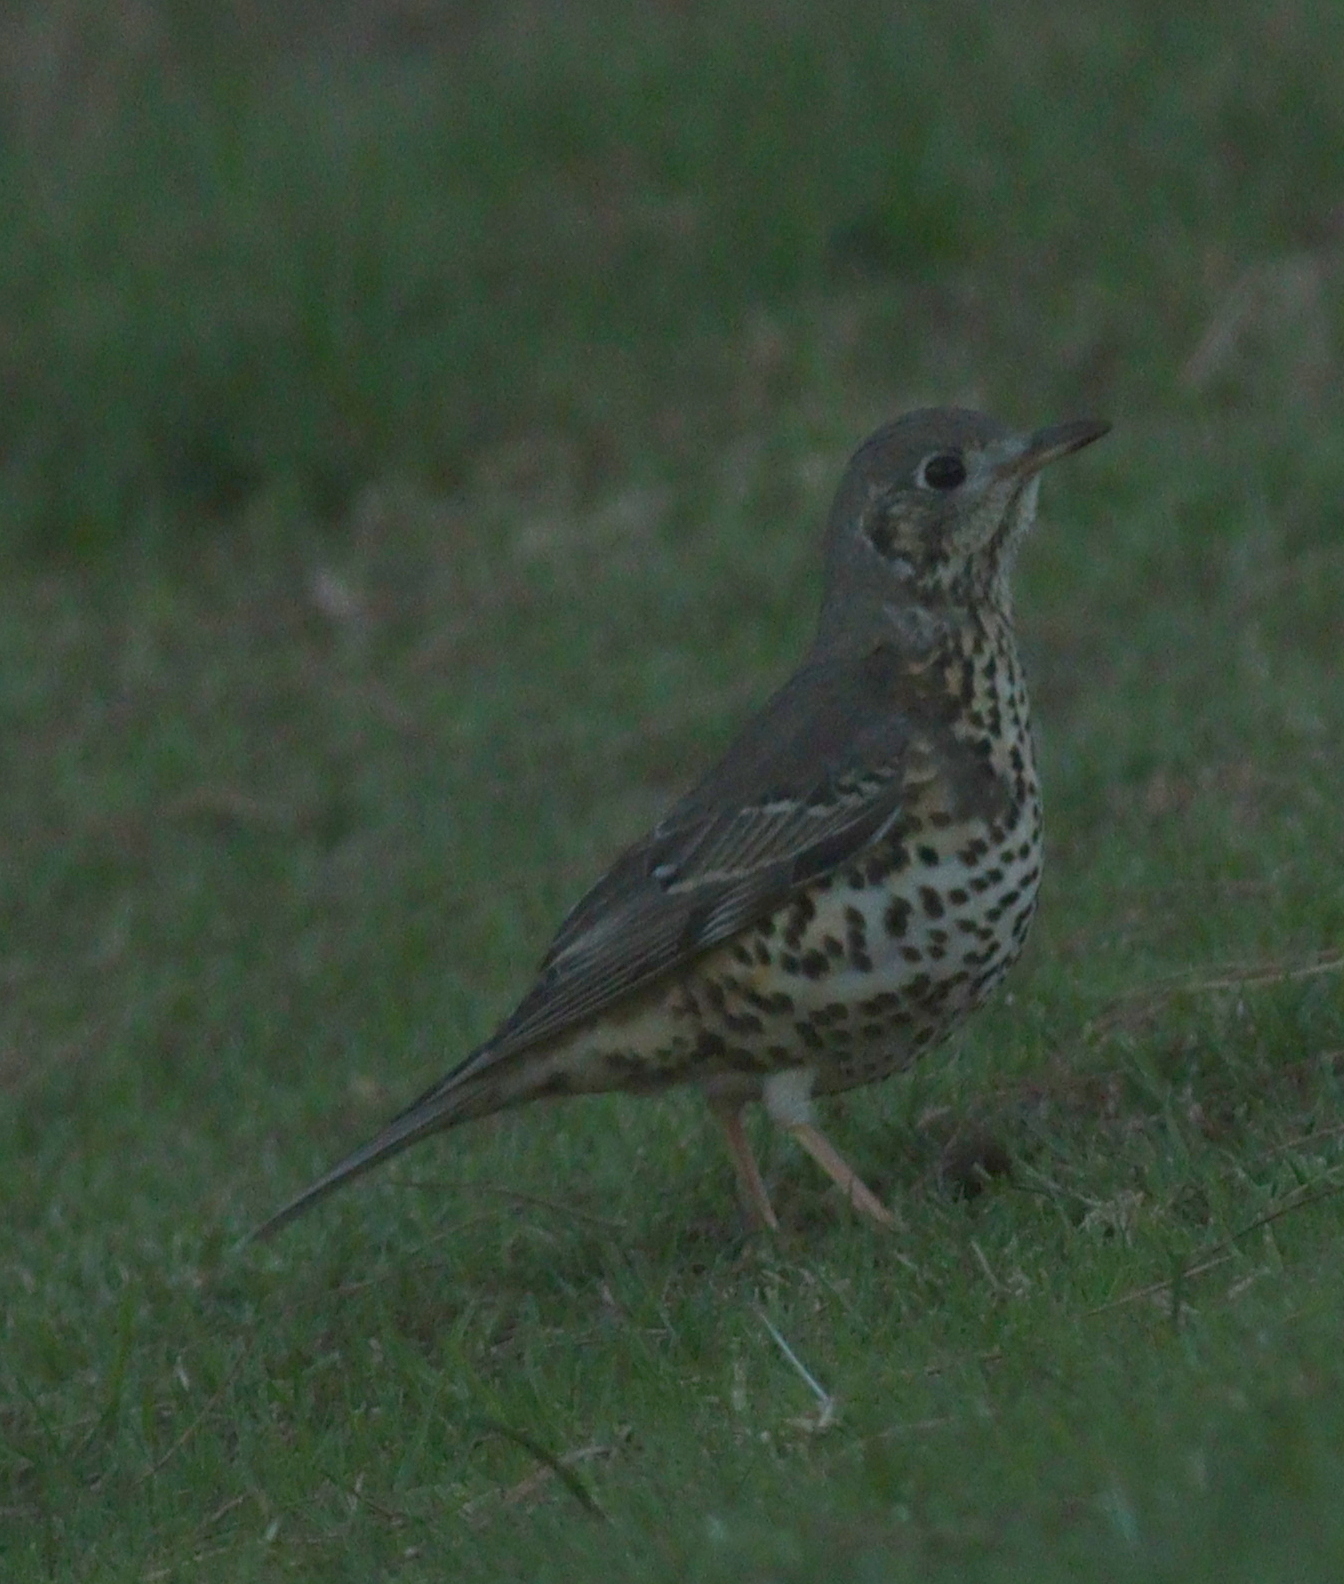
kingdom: Animalia
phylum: Chordata
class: Aves
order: Passeriformes
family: Turdidae
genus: Turdus
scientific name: Turdus viscivorus
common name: Mistle thrush
